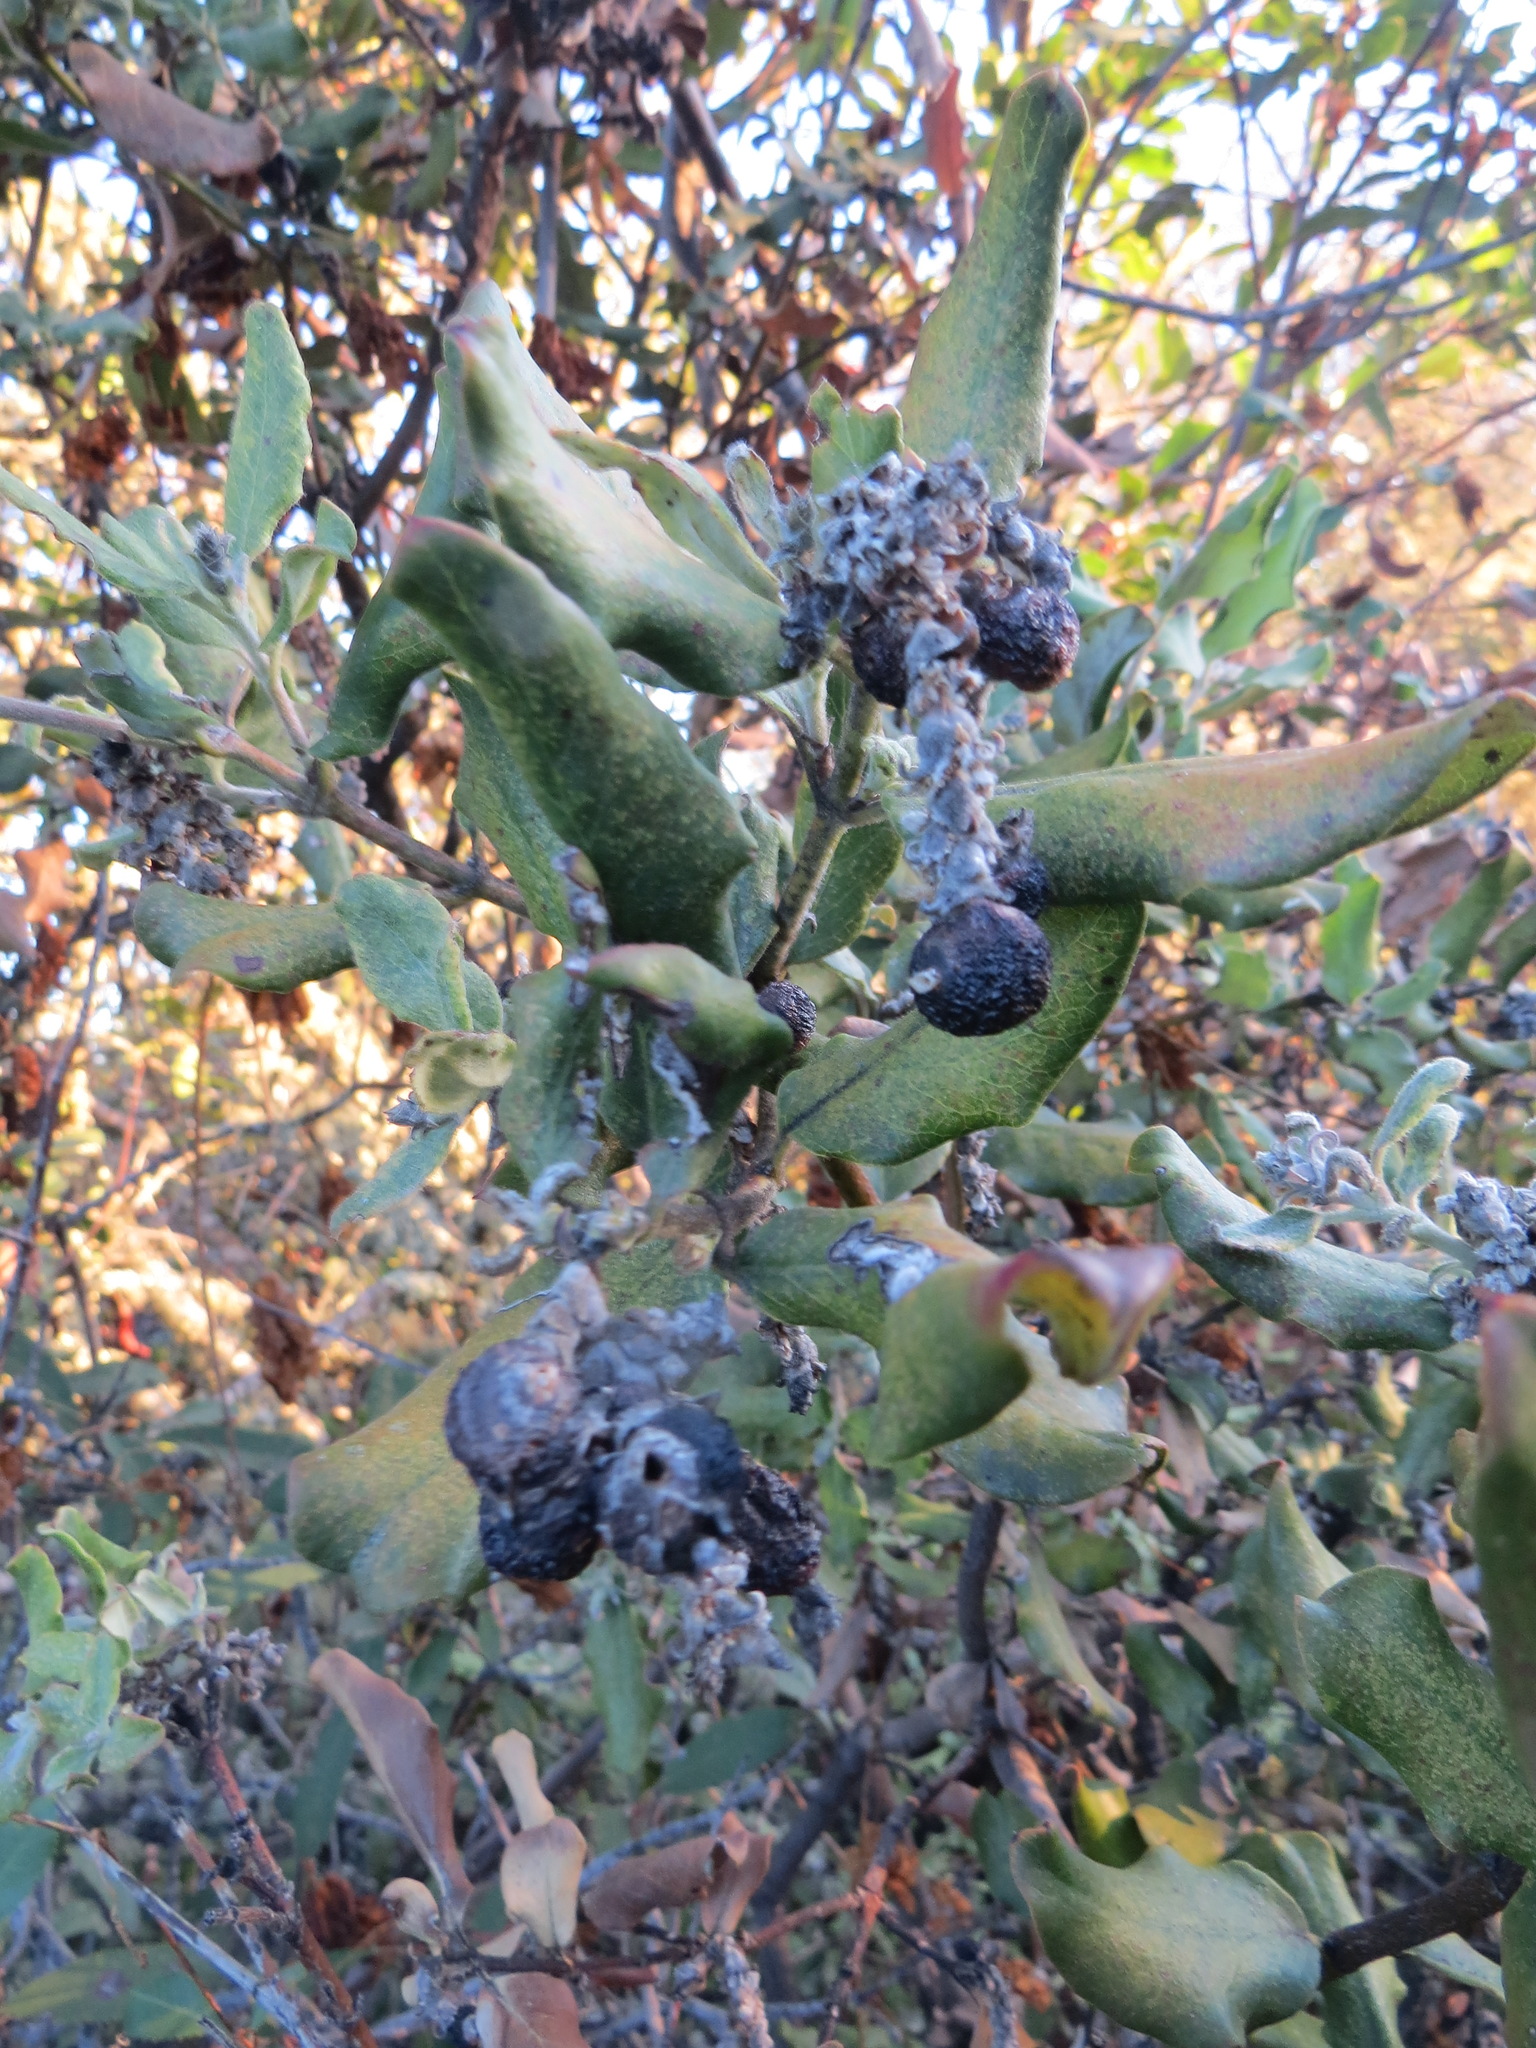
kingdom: Animalia
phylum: Arthropoda
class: Insecta
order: Diptera
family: Cecidomyiidae
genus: Asphondylia
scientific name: Asphondylia garryae
